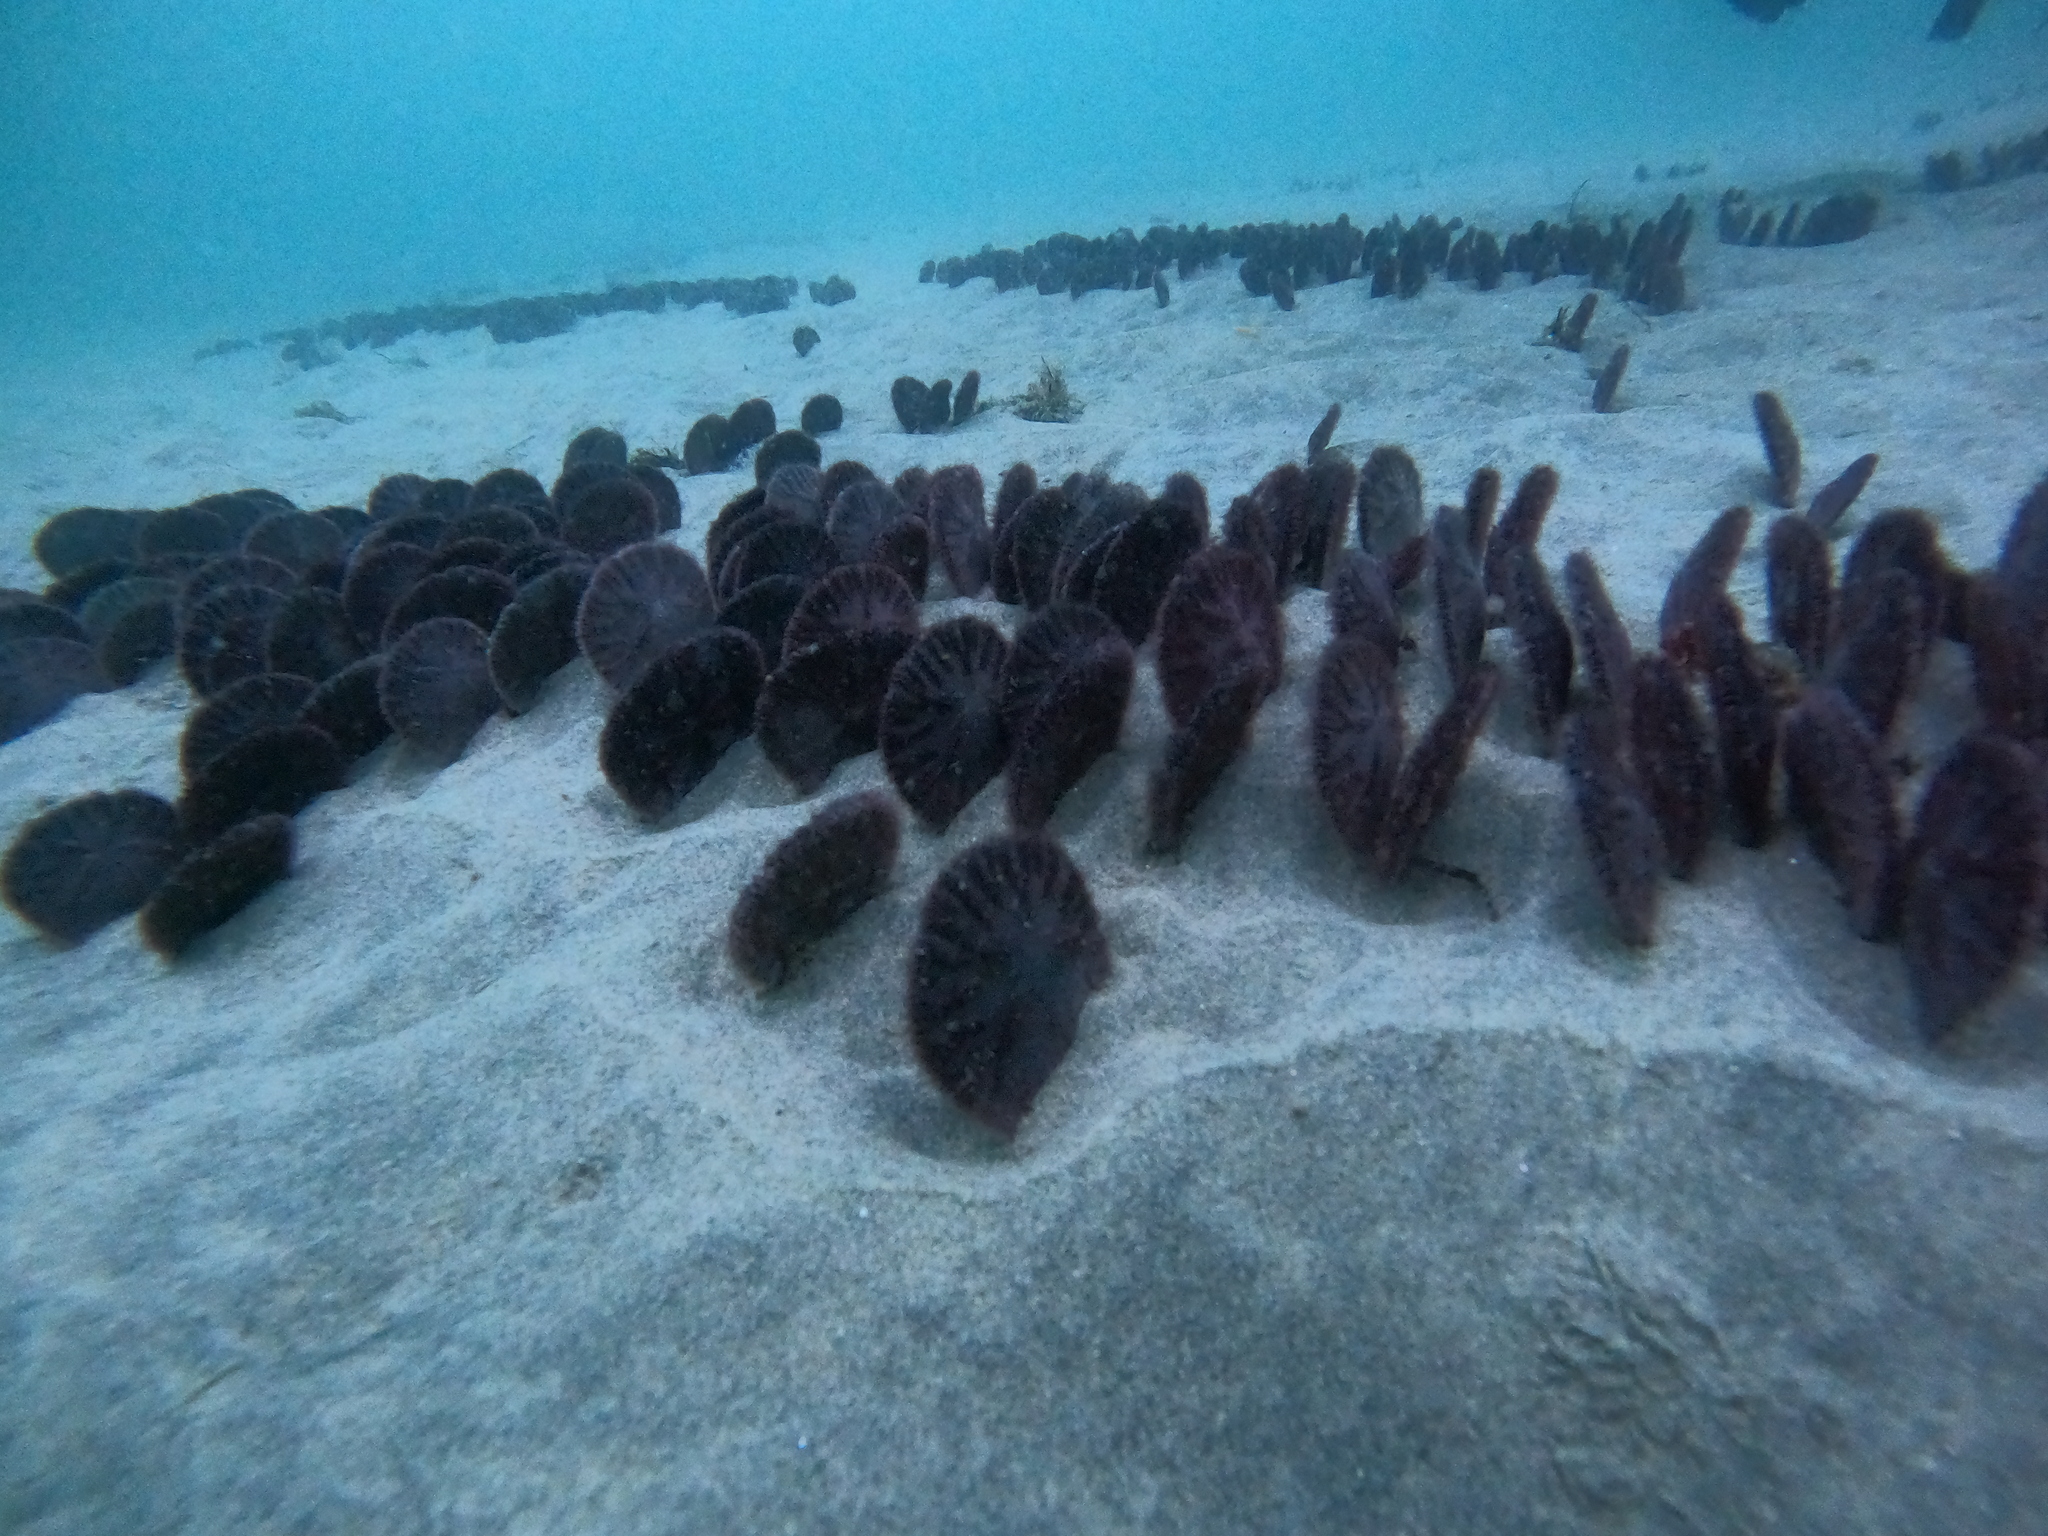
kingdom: Animalia
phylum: Echinodermata
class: Echinoidea
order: Echinolampadacea
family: Dendrasteridae
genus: Dendraster
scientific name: Dendraster excentricus
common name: Eccentric sand dollar sea urchin
